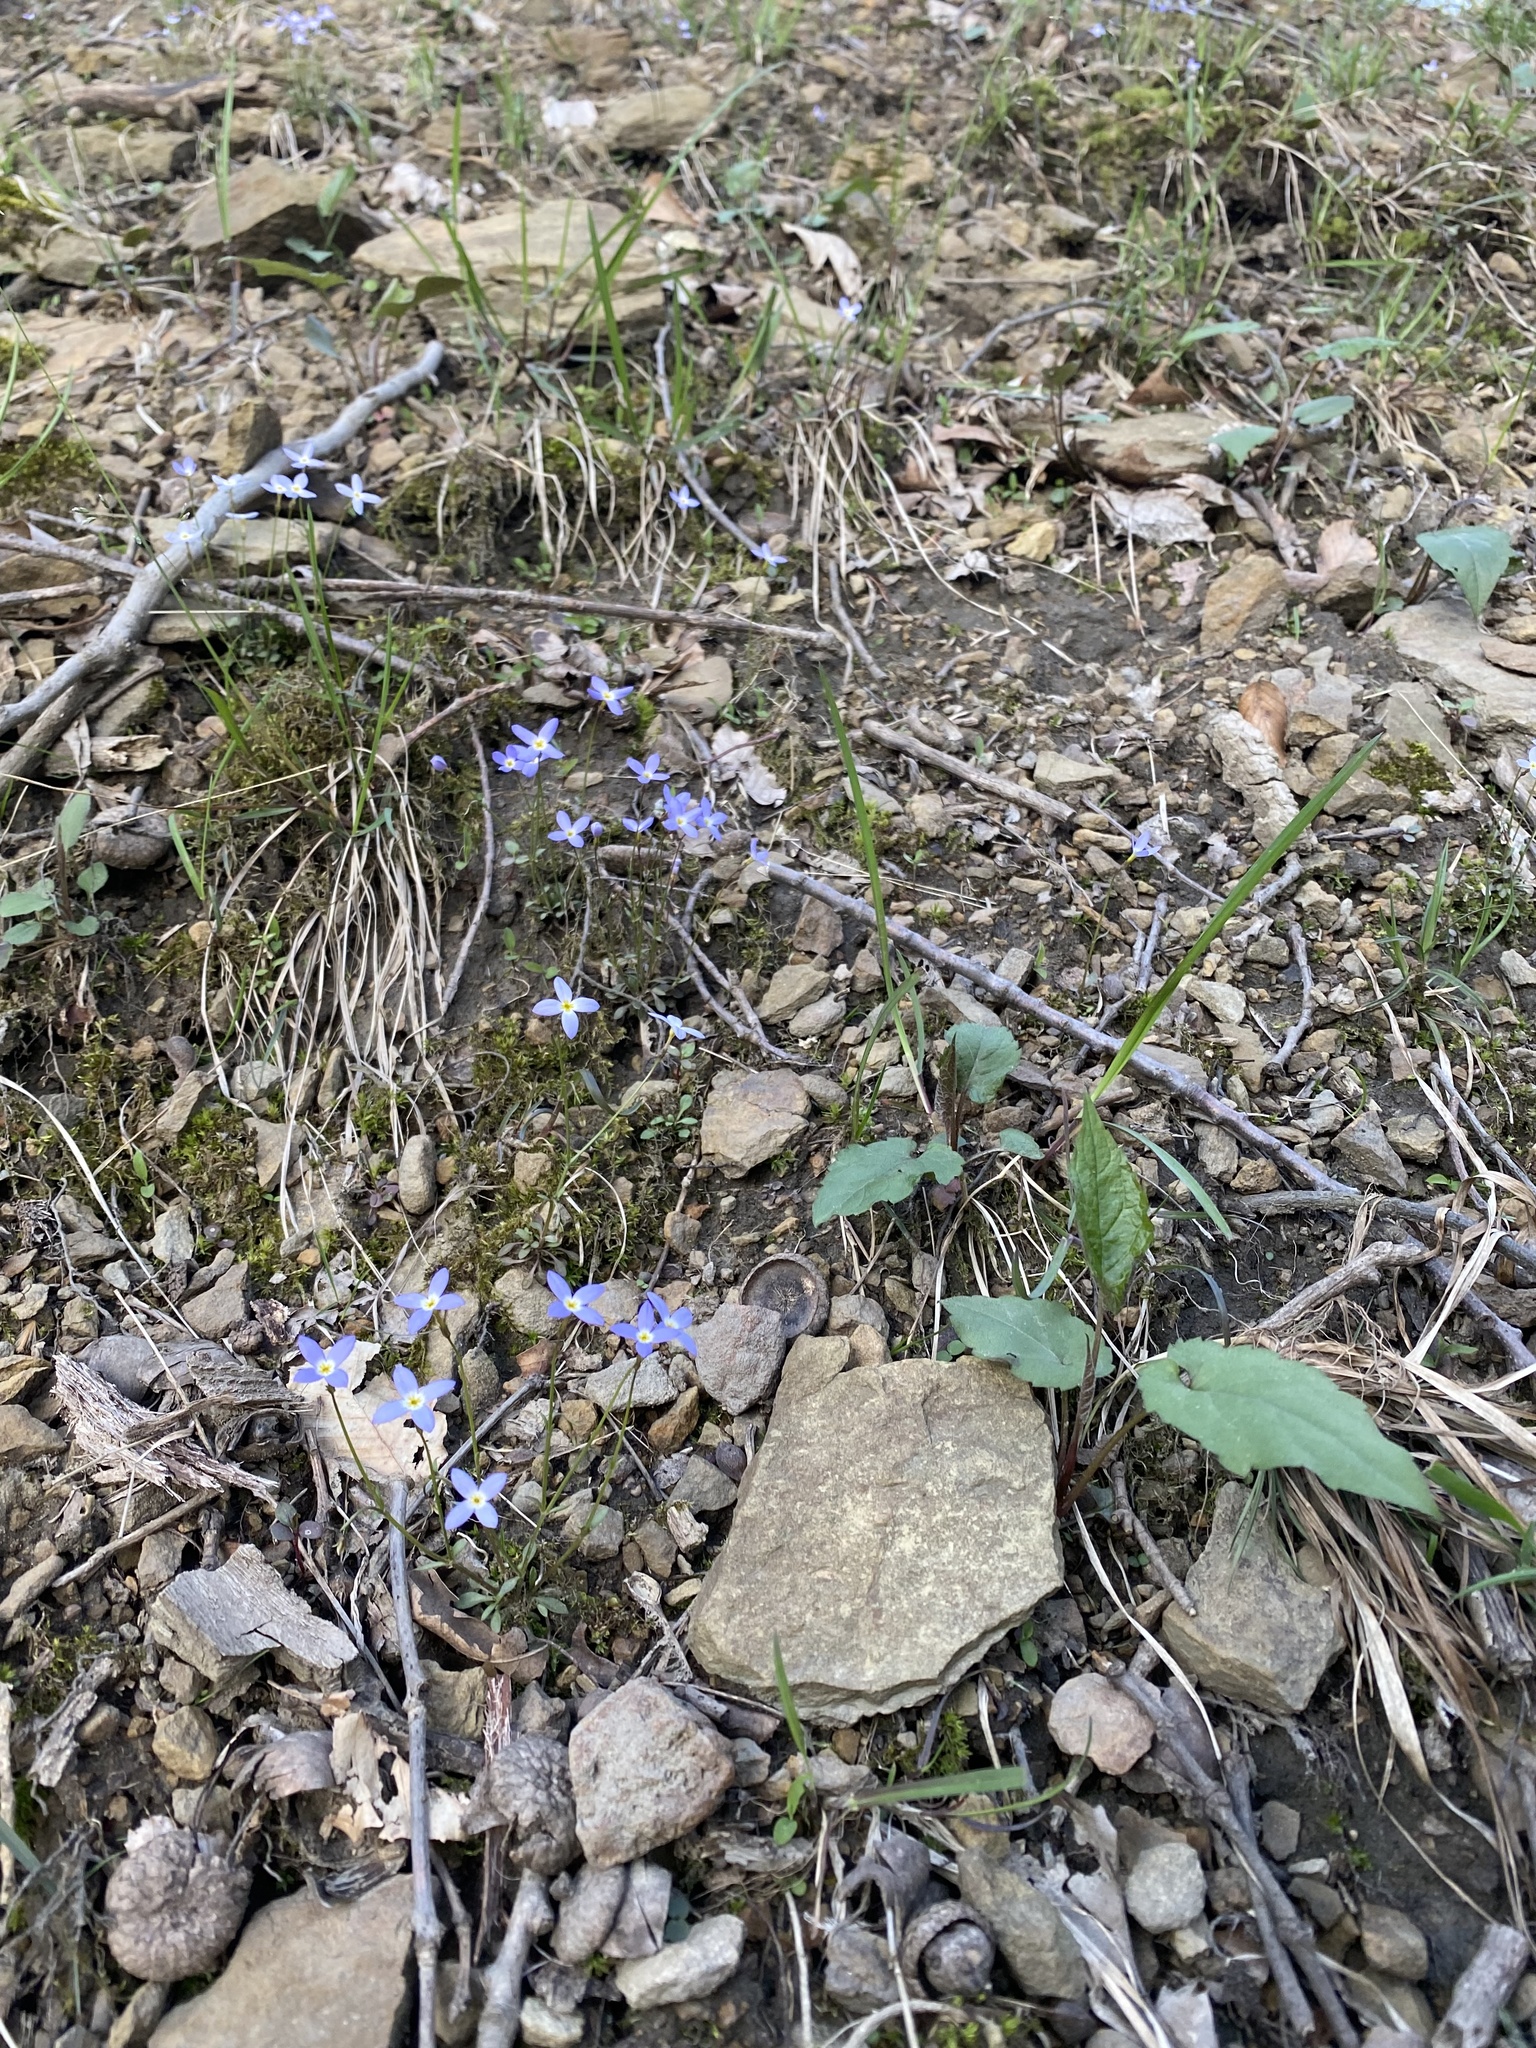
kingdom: Plantae
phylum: Tracheophyta
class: Magnoliopsida
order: Gentianales
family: Rubiaceae
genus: Houstonia
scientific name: Houstonia caerulea
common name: Bluets
